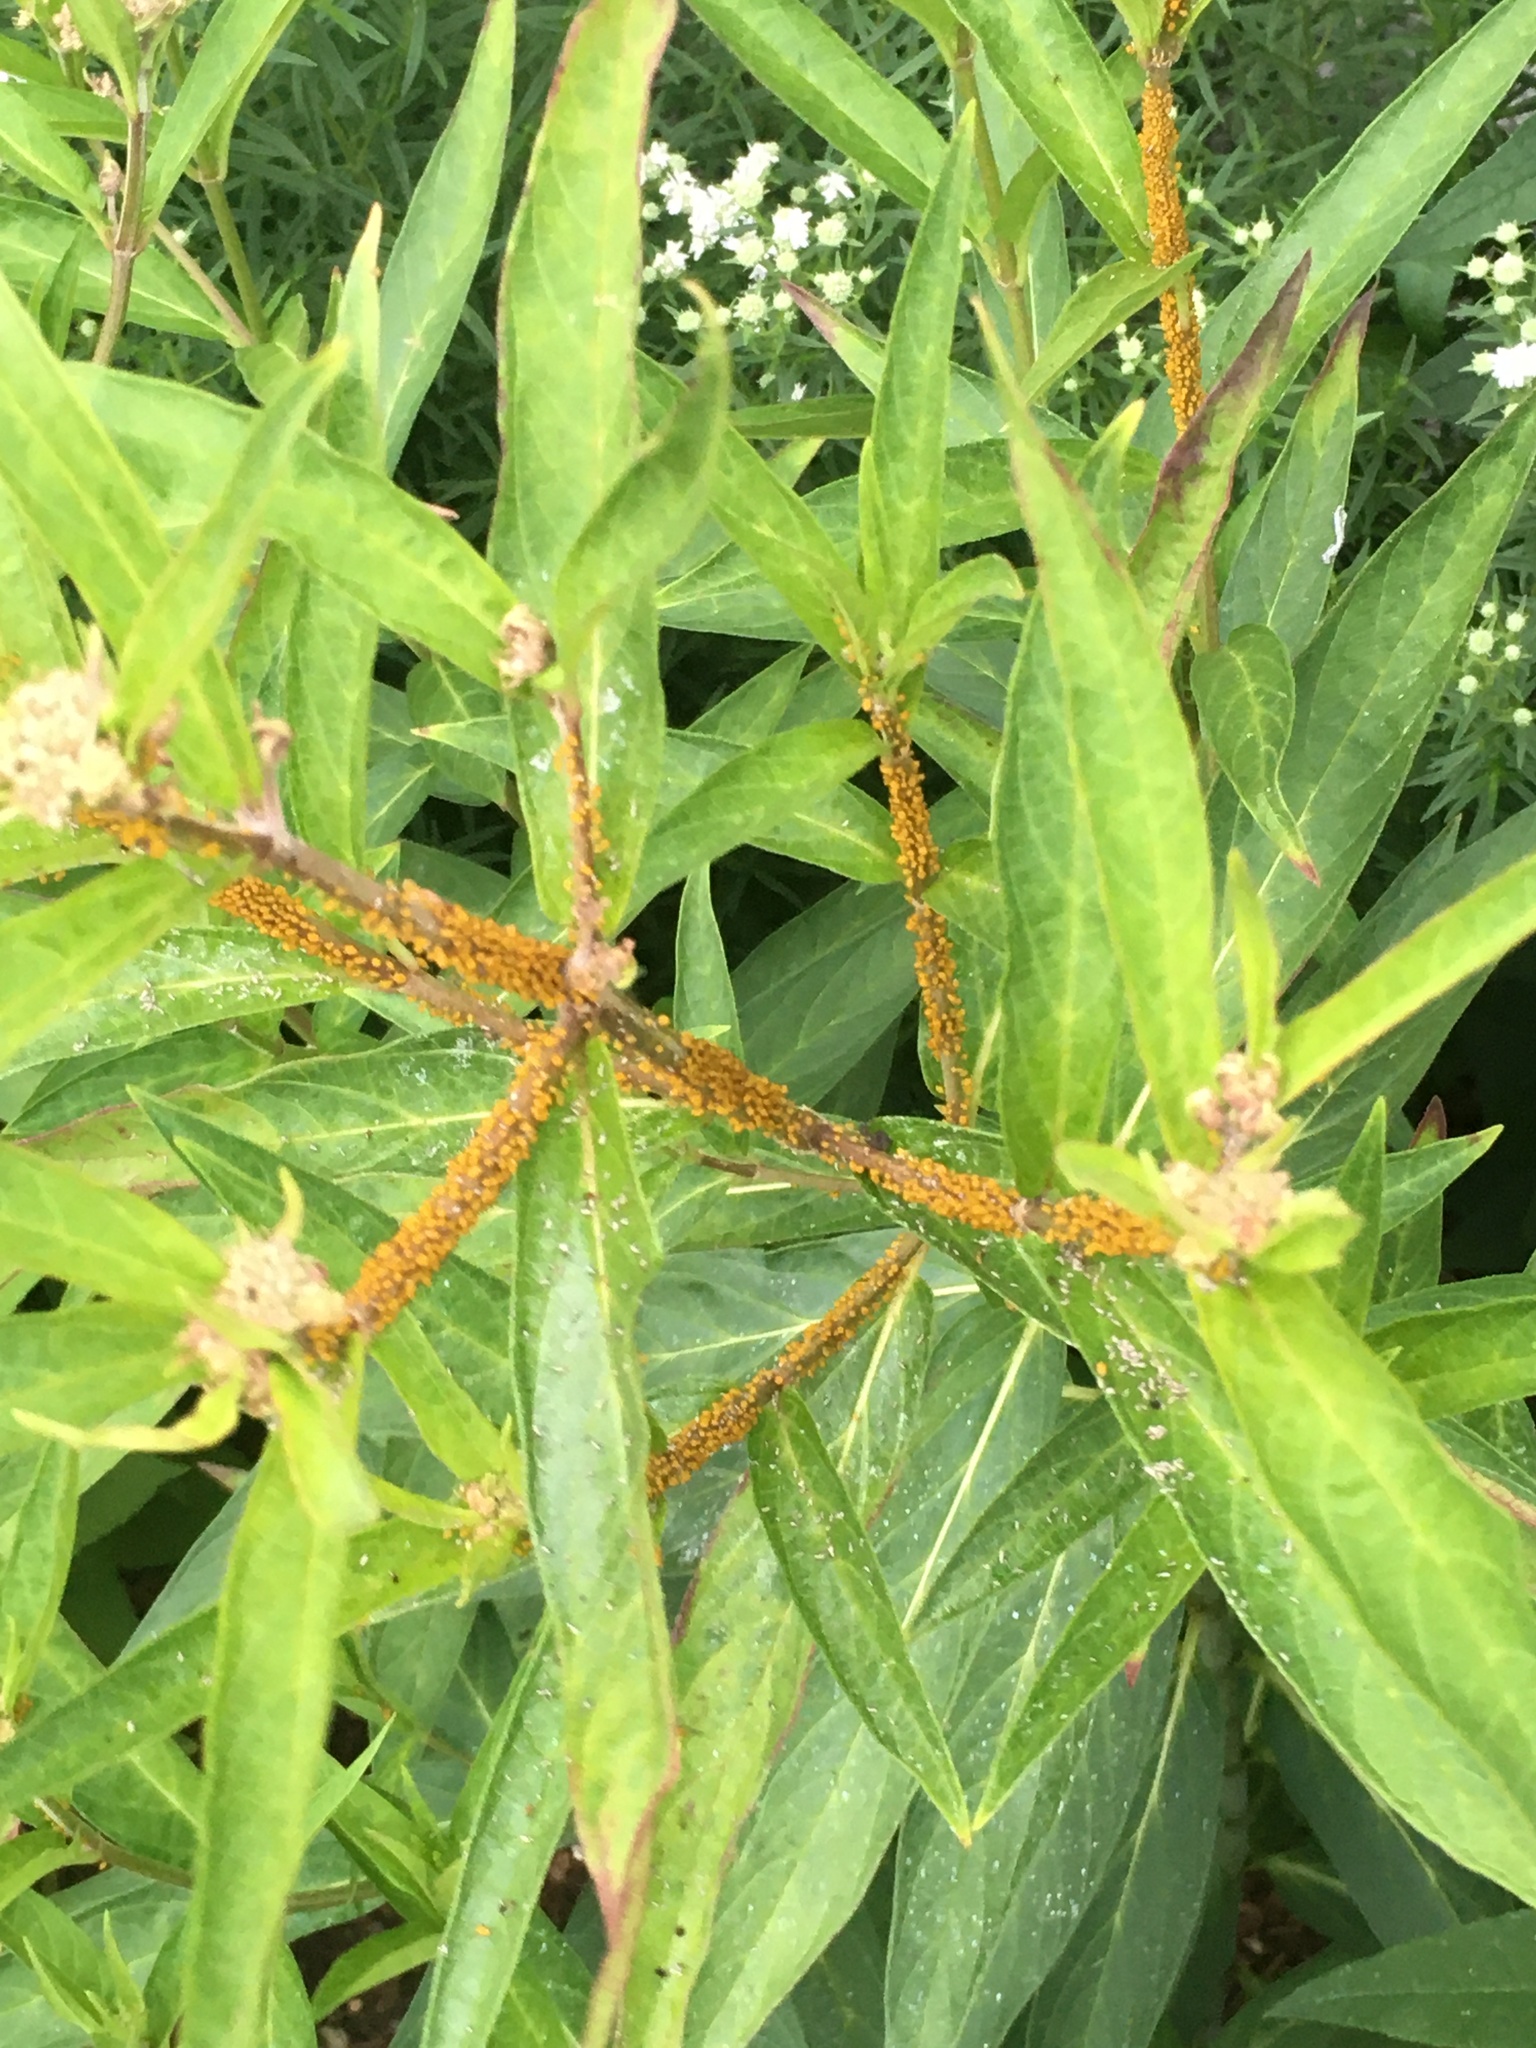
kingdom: Animalia
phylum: Arthropoda
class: Insecta
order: Hemiptera
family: Aphididae
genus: Aphis
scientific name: Aphis nerii
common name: Oleander aphid
